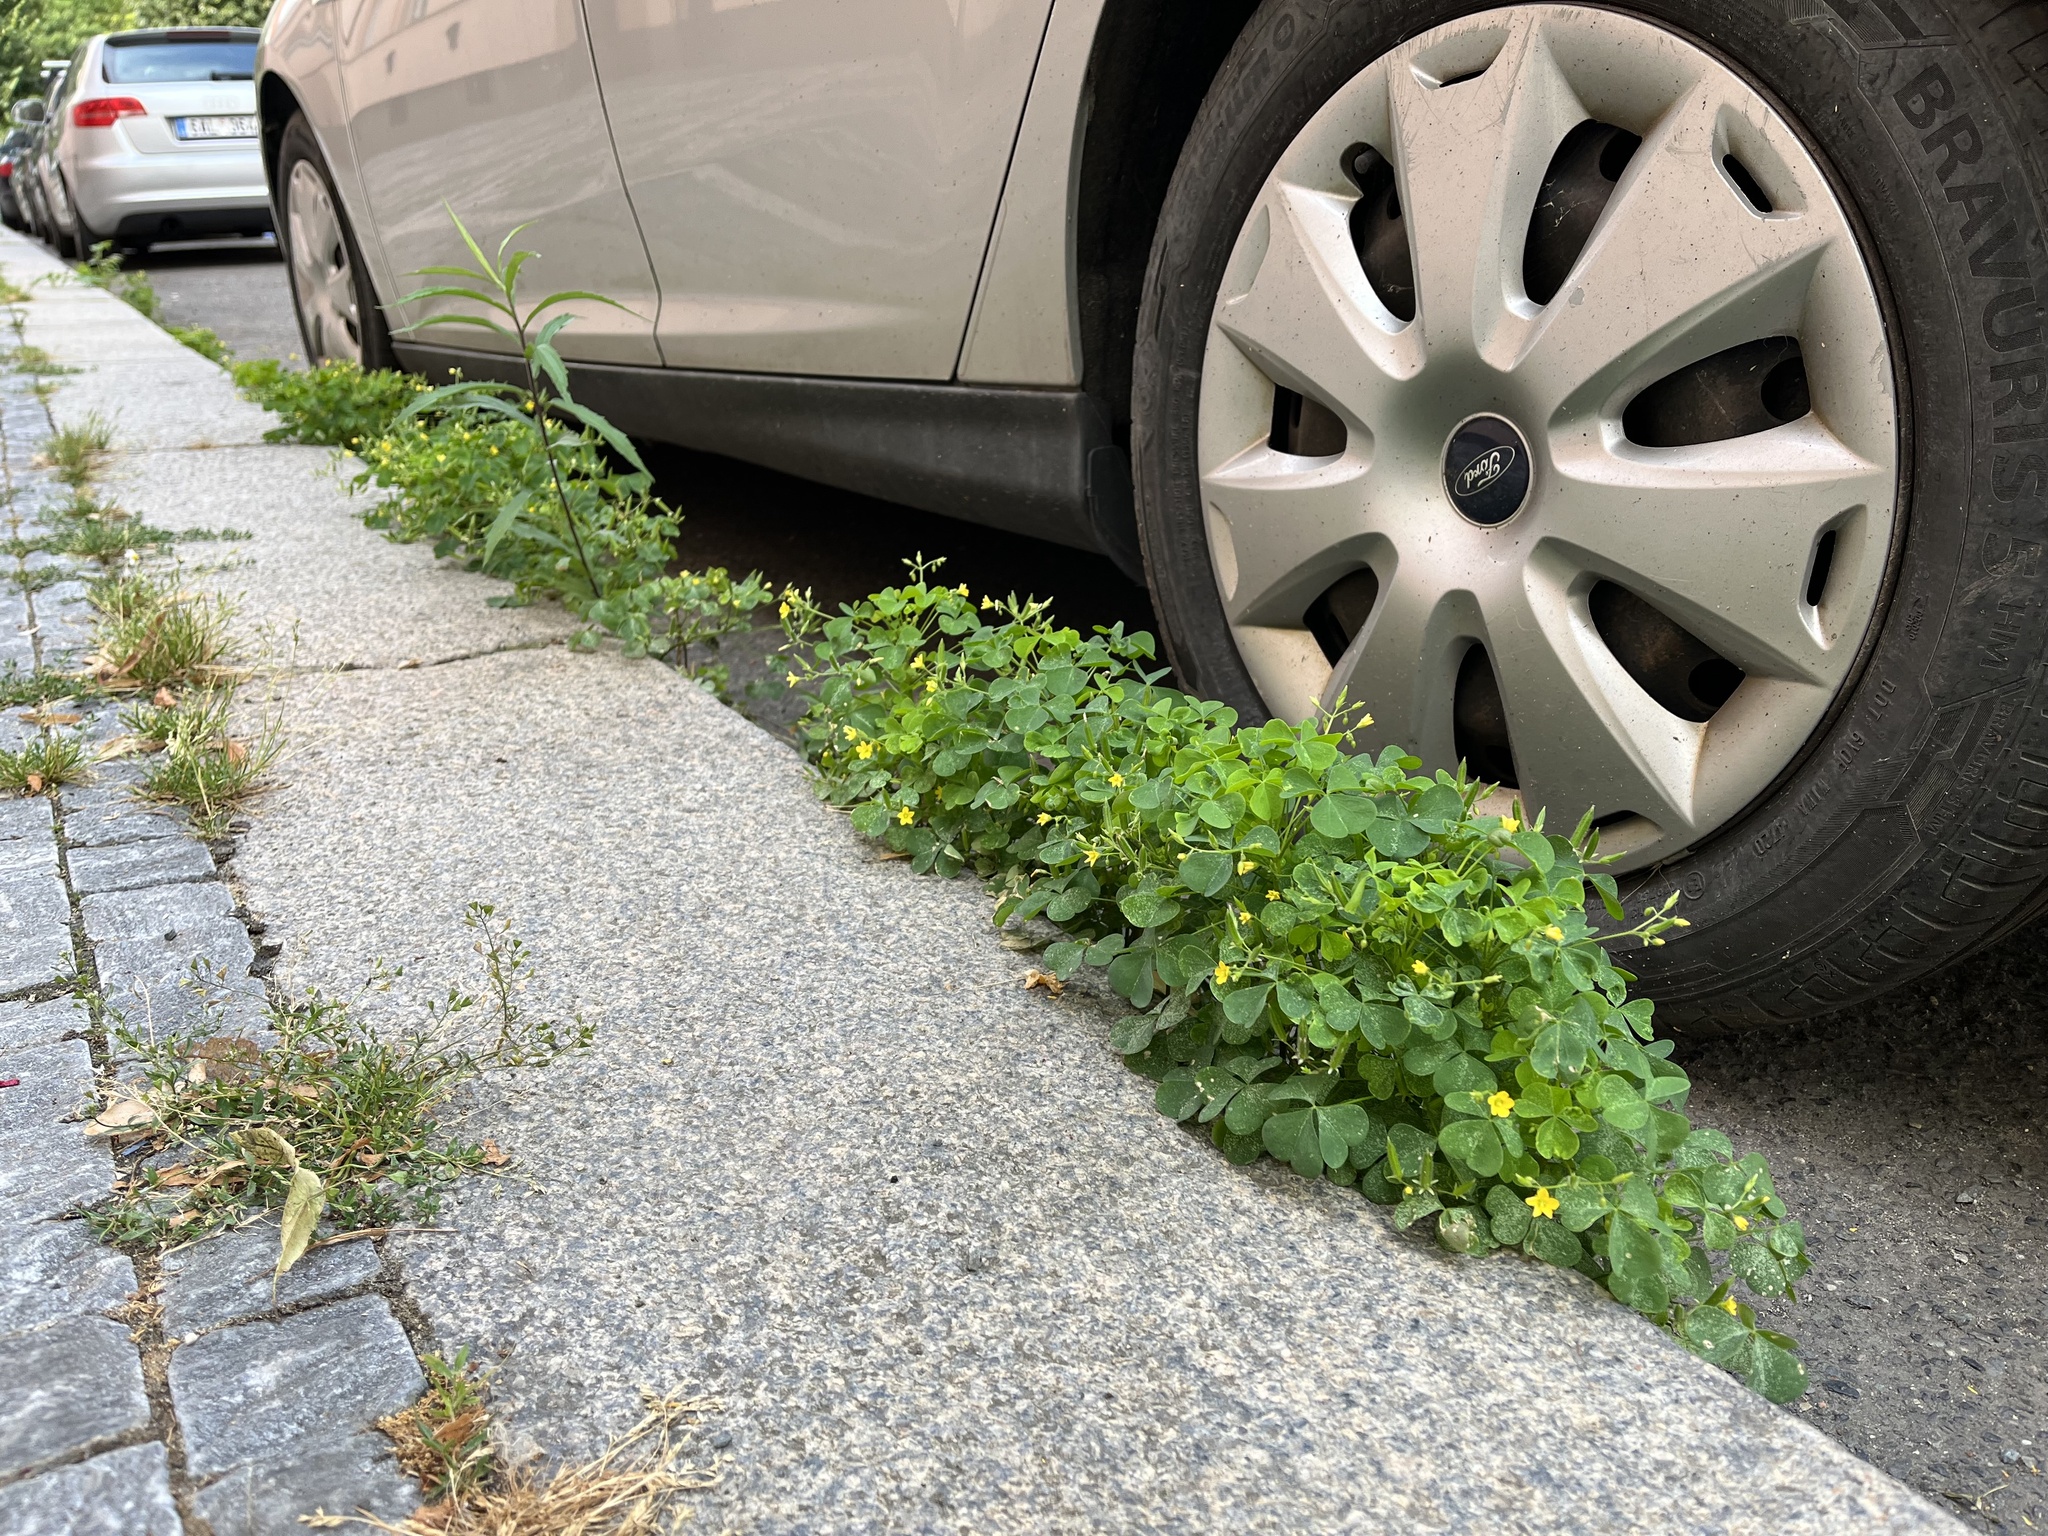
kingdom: Plantae
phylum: Tracheophyta
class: Magnoliopsida
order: Oxalidales
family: Oxalidaceae
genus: Oxalis
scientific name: Oxalis stricta
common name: Upright yellow-sorrel
